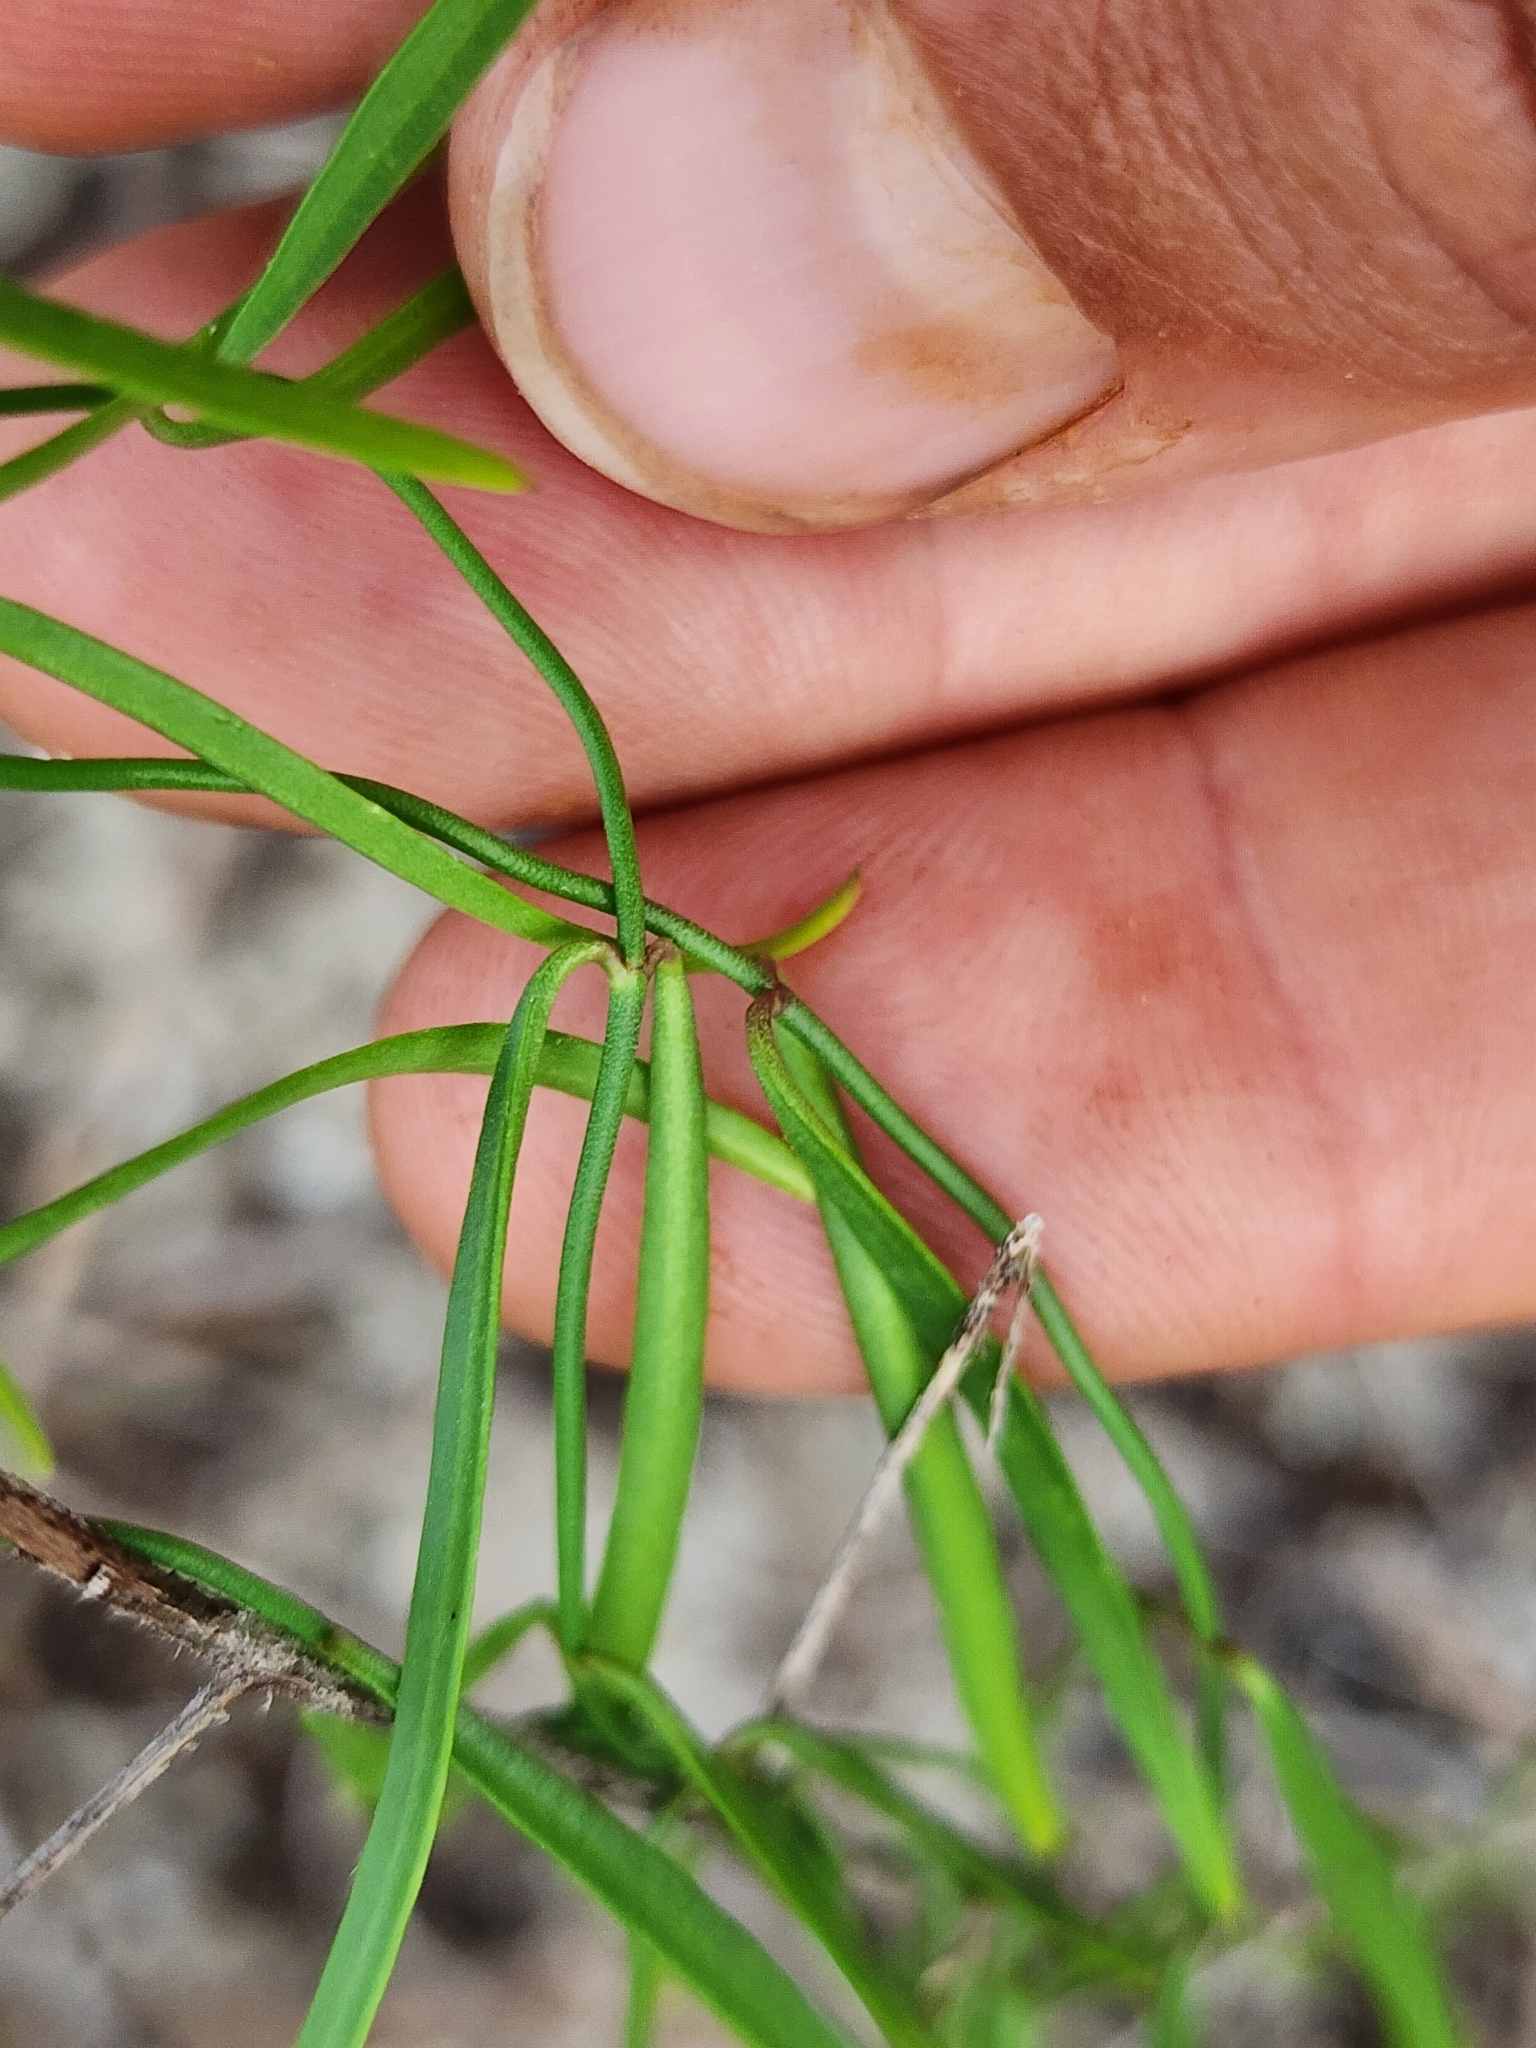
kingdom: Plantae
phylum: Tracheophyta
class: Magnoliopsida
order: Gentianales
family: Apocynaceae
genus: Pattalias
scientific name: Pattalias
